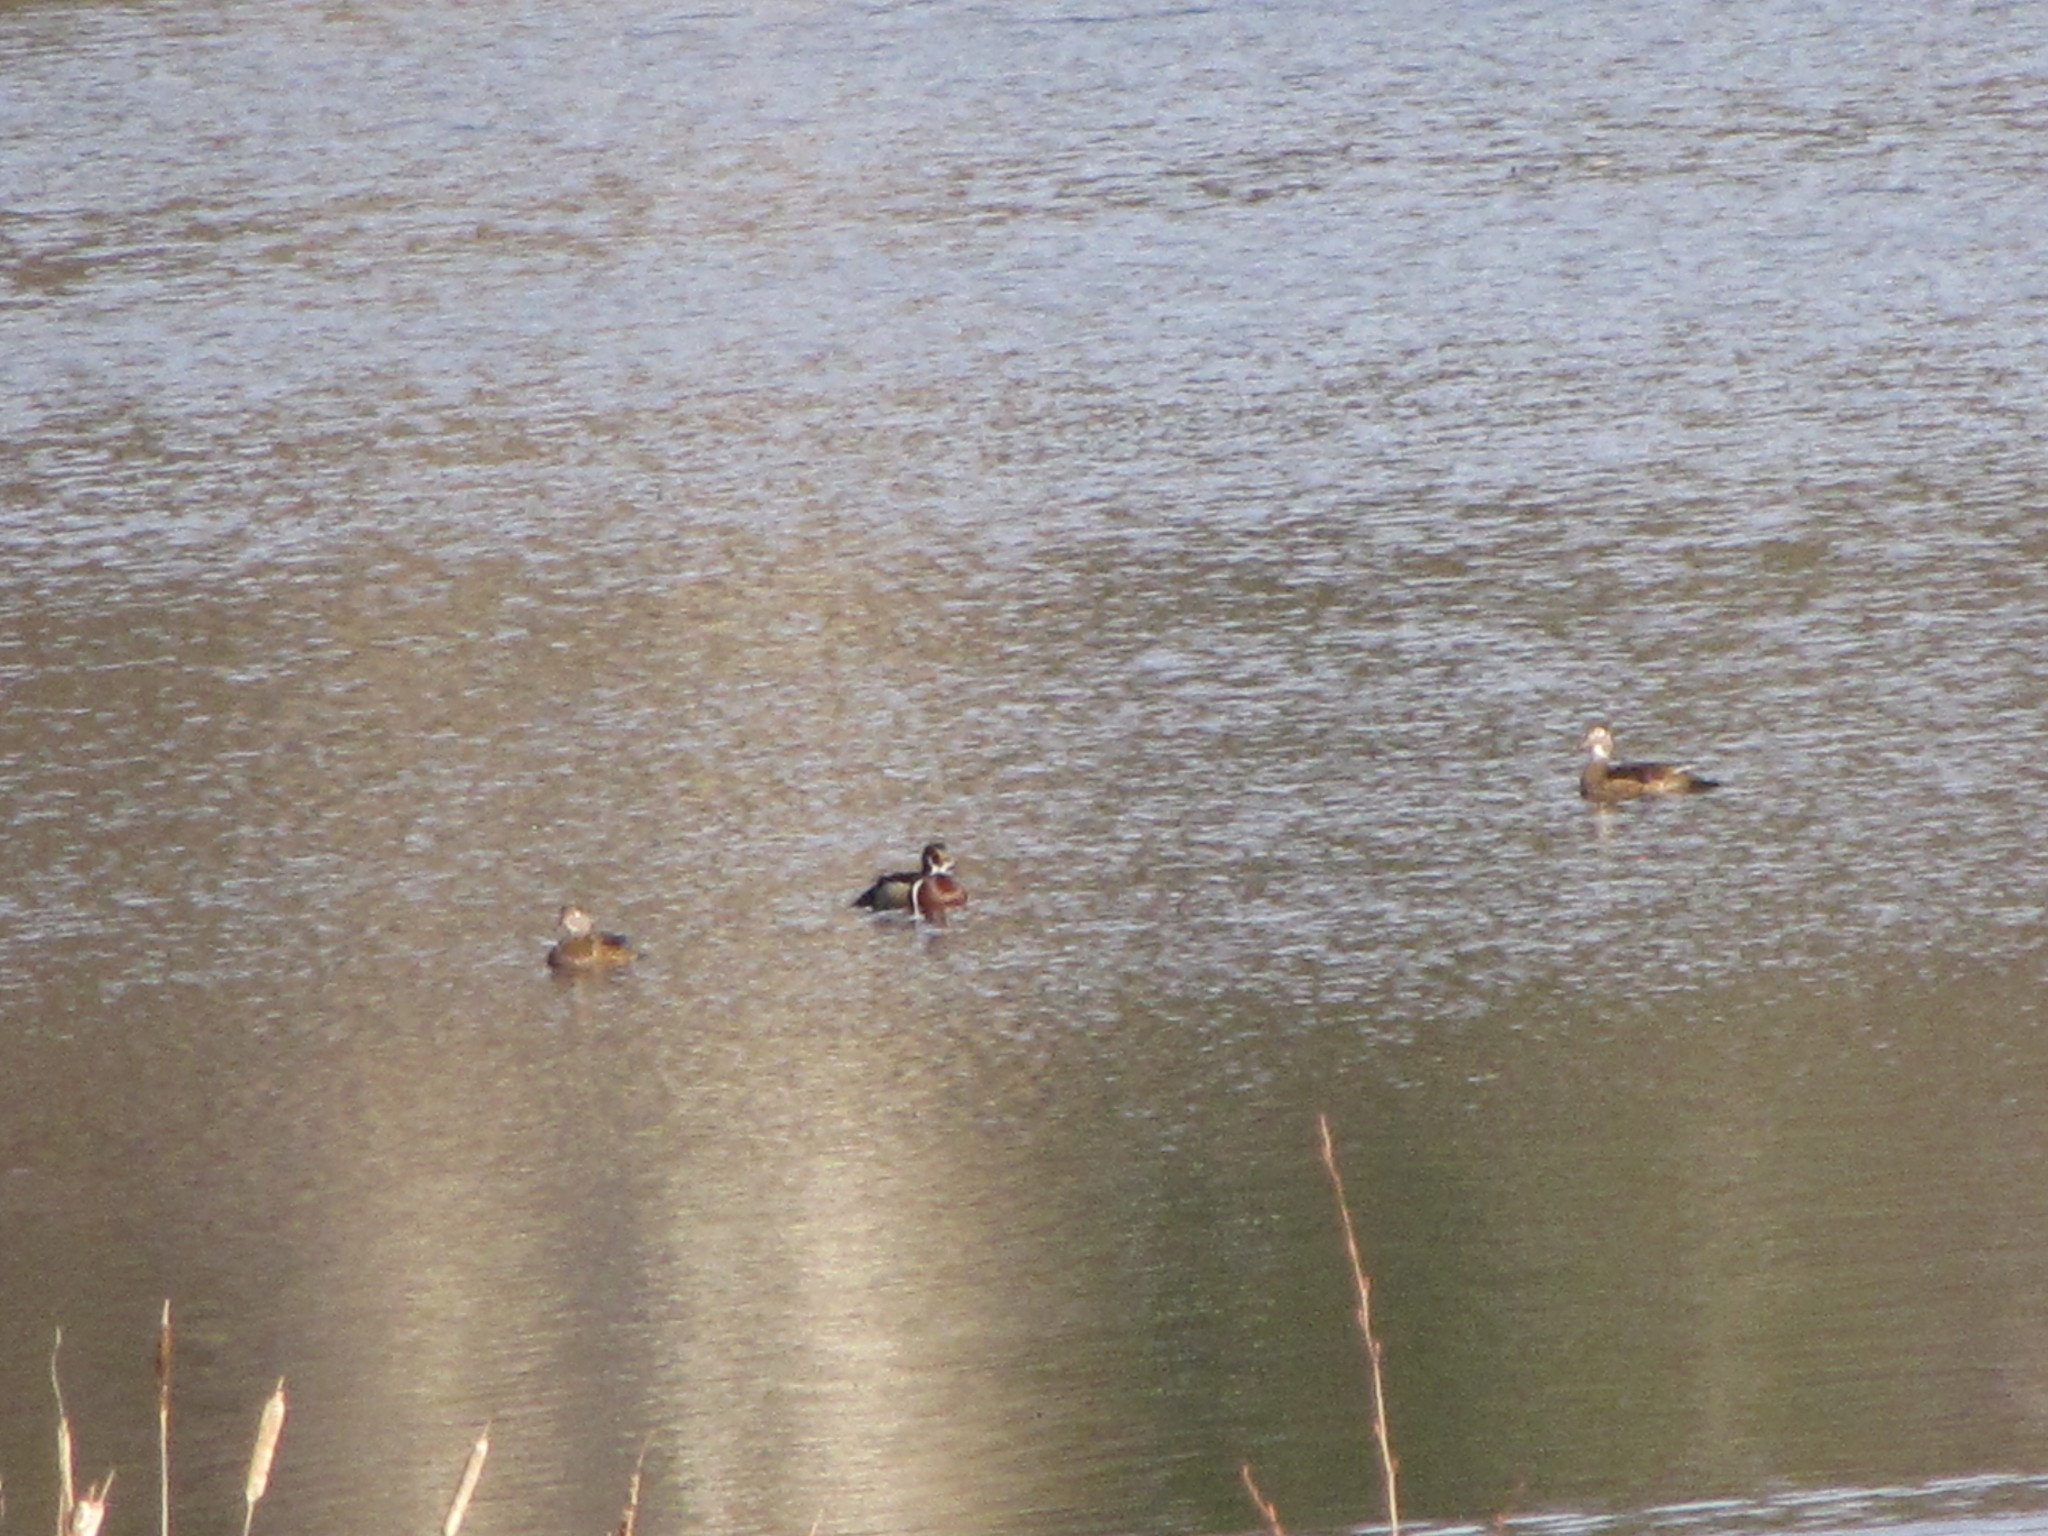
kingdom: Animalia
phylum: Chordata
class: Aves
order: Anseriformes
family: Anatidae
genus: Aix
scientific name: Aix sponsa
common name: Wood duck
